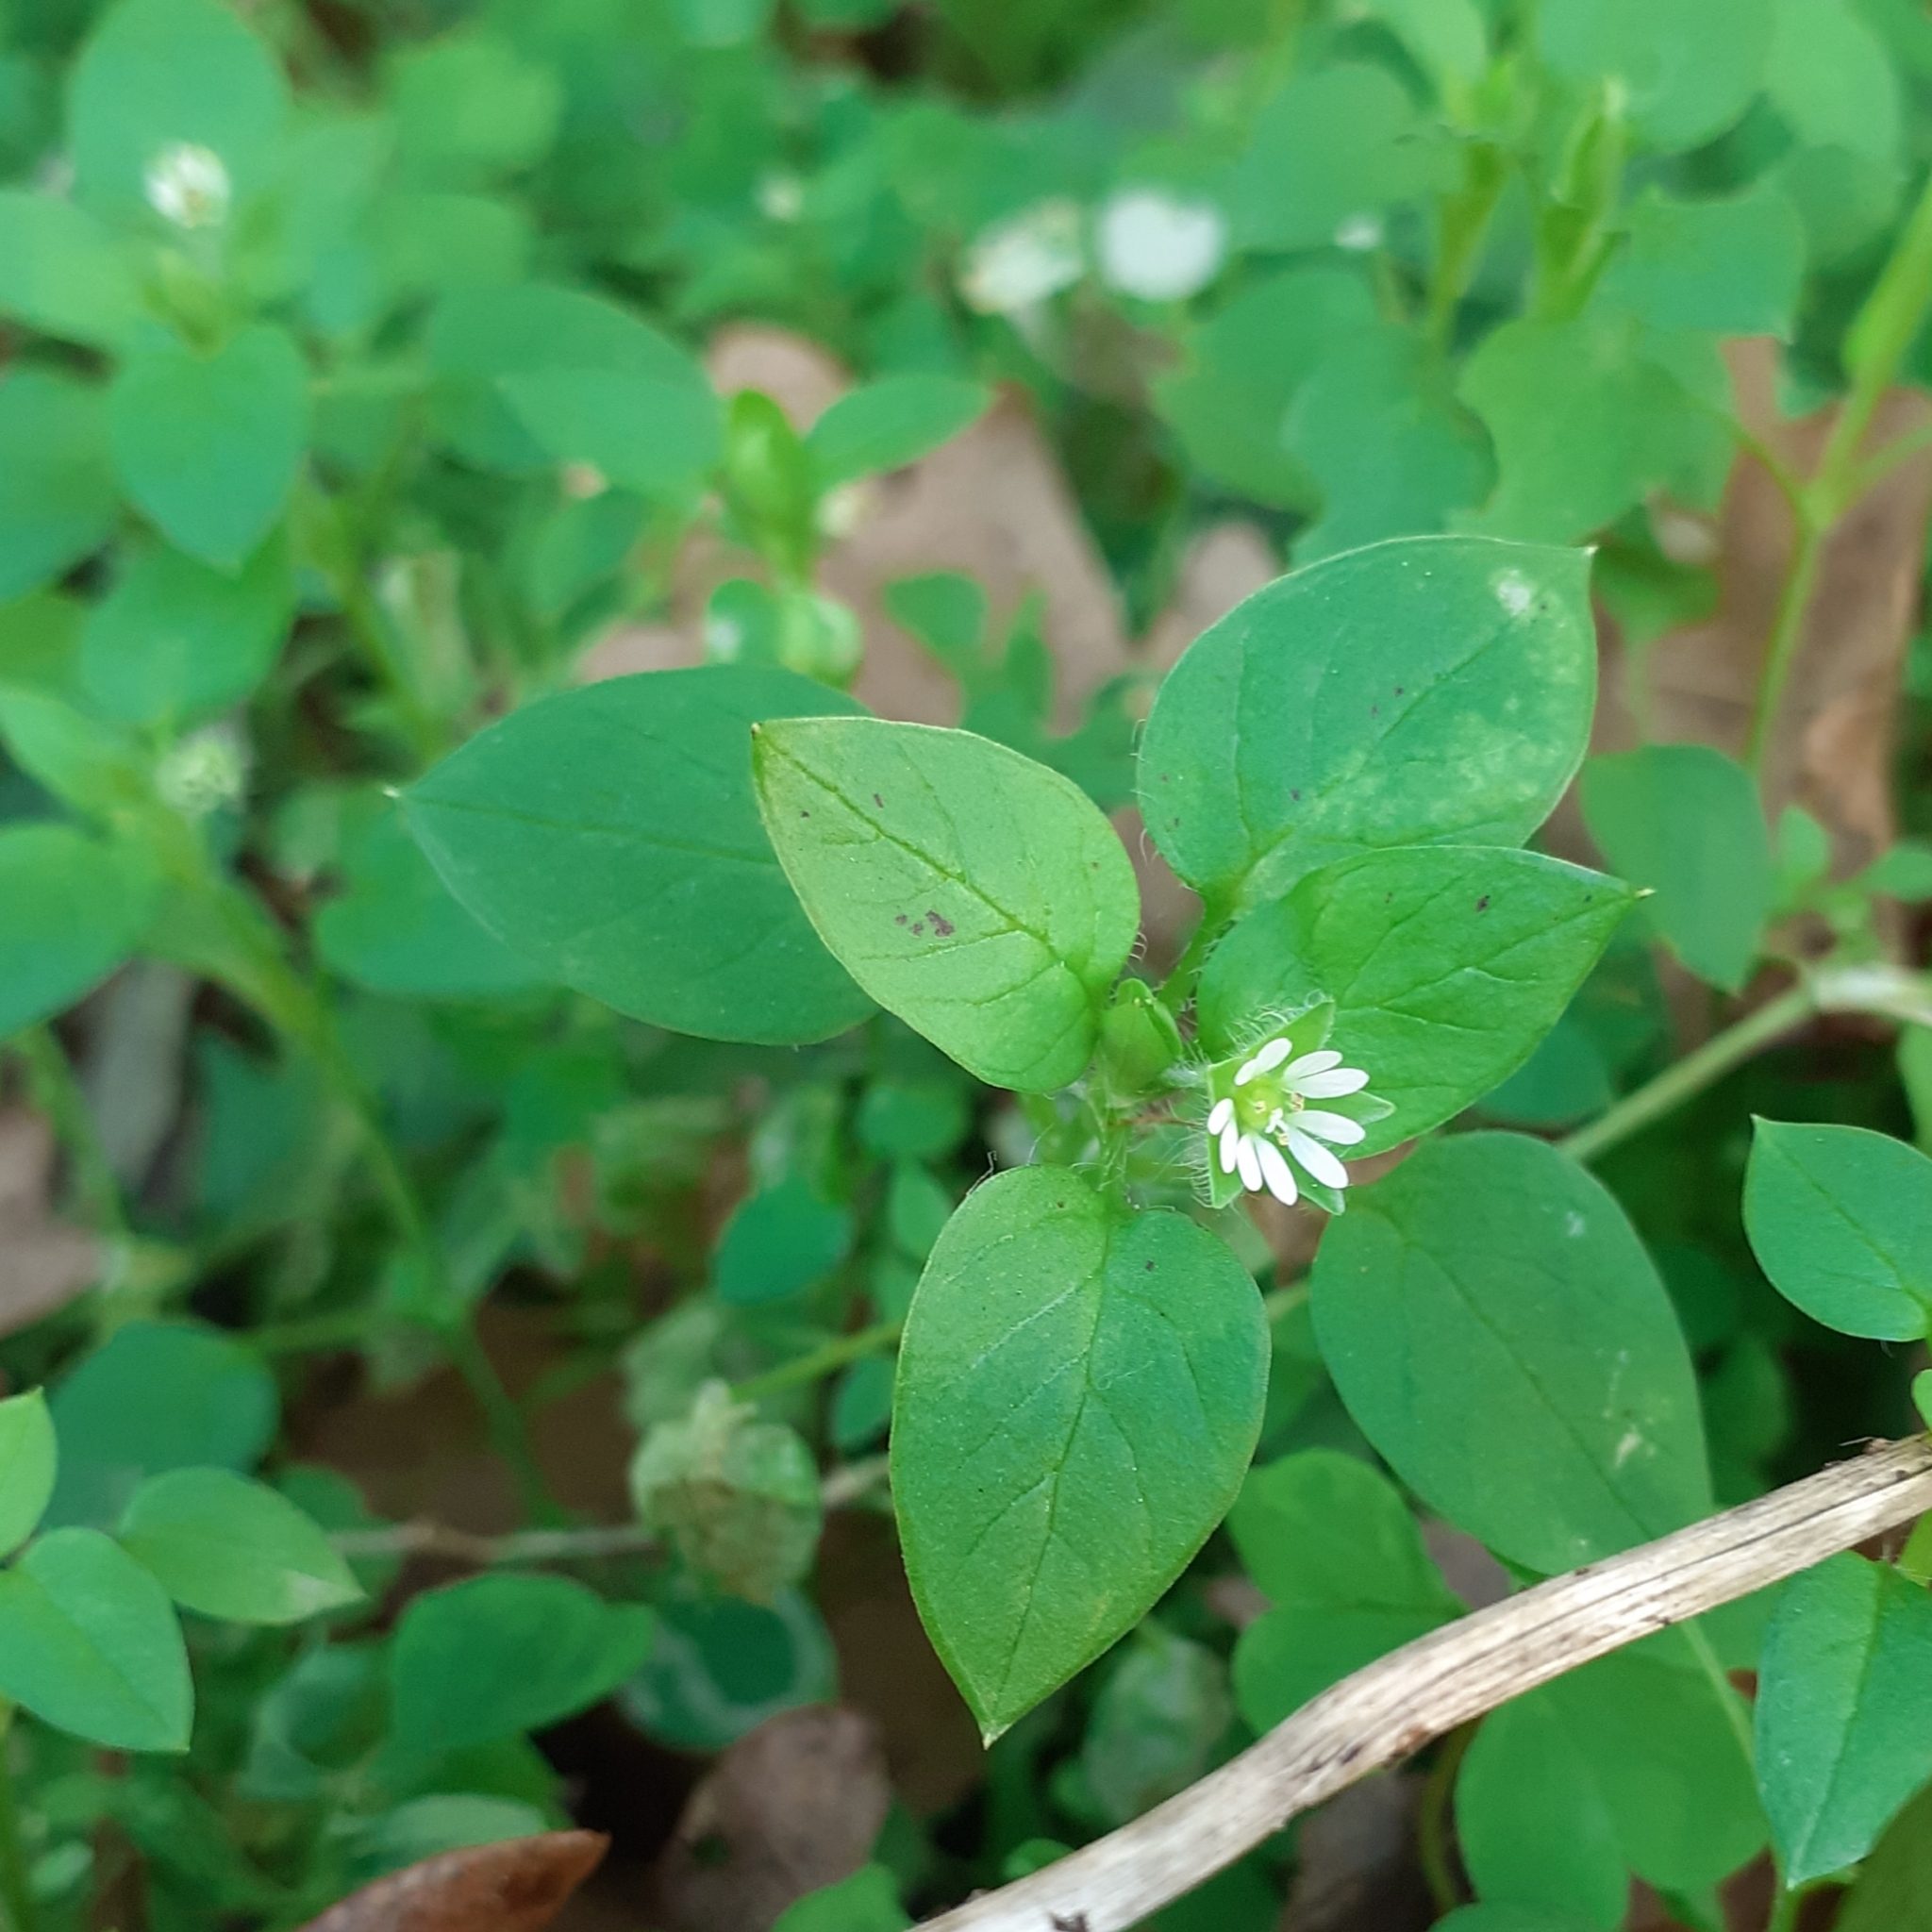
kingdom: Plantae
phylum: Tracheophyta
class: Magnoliopsida
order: Caryophyllales
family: Caryophyllaceae
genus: Stellaria
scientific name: Stellaria media
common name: Common chickweed
